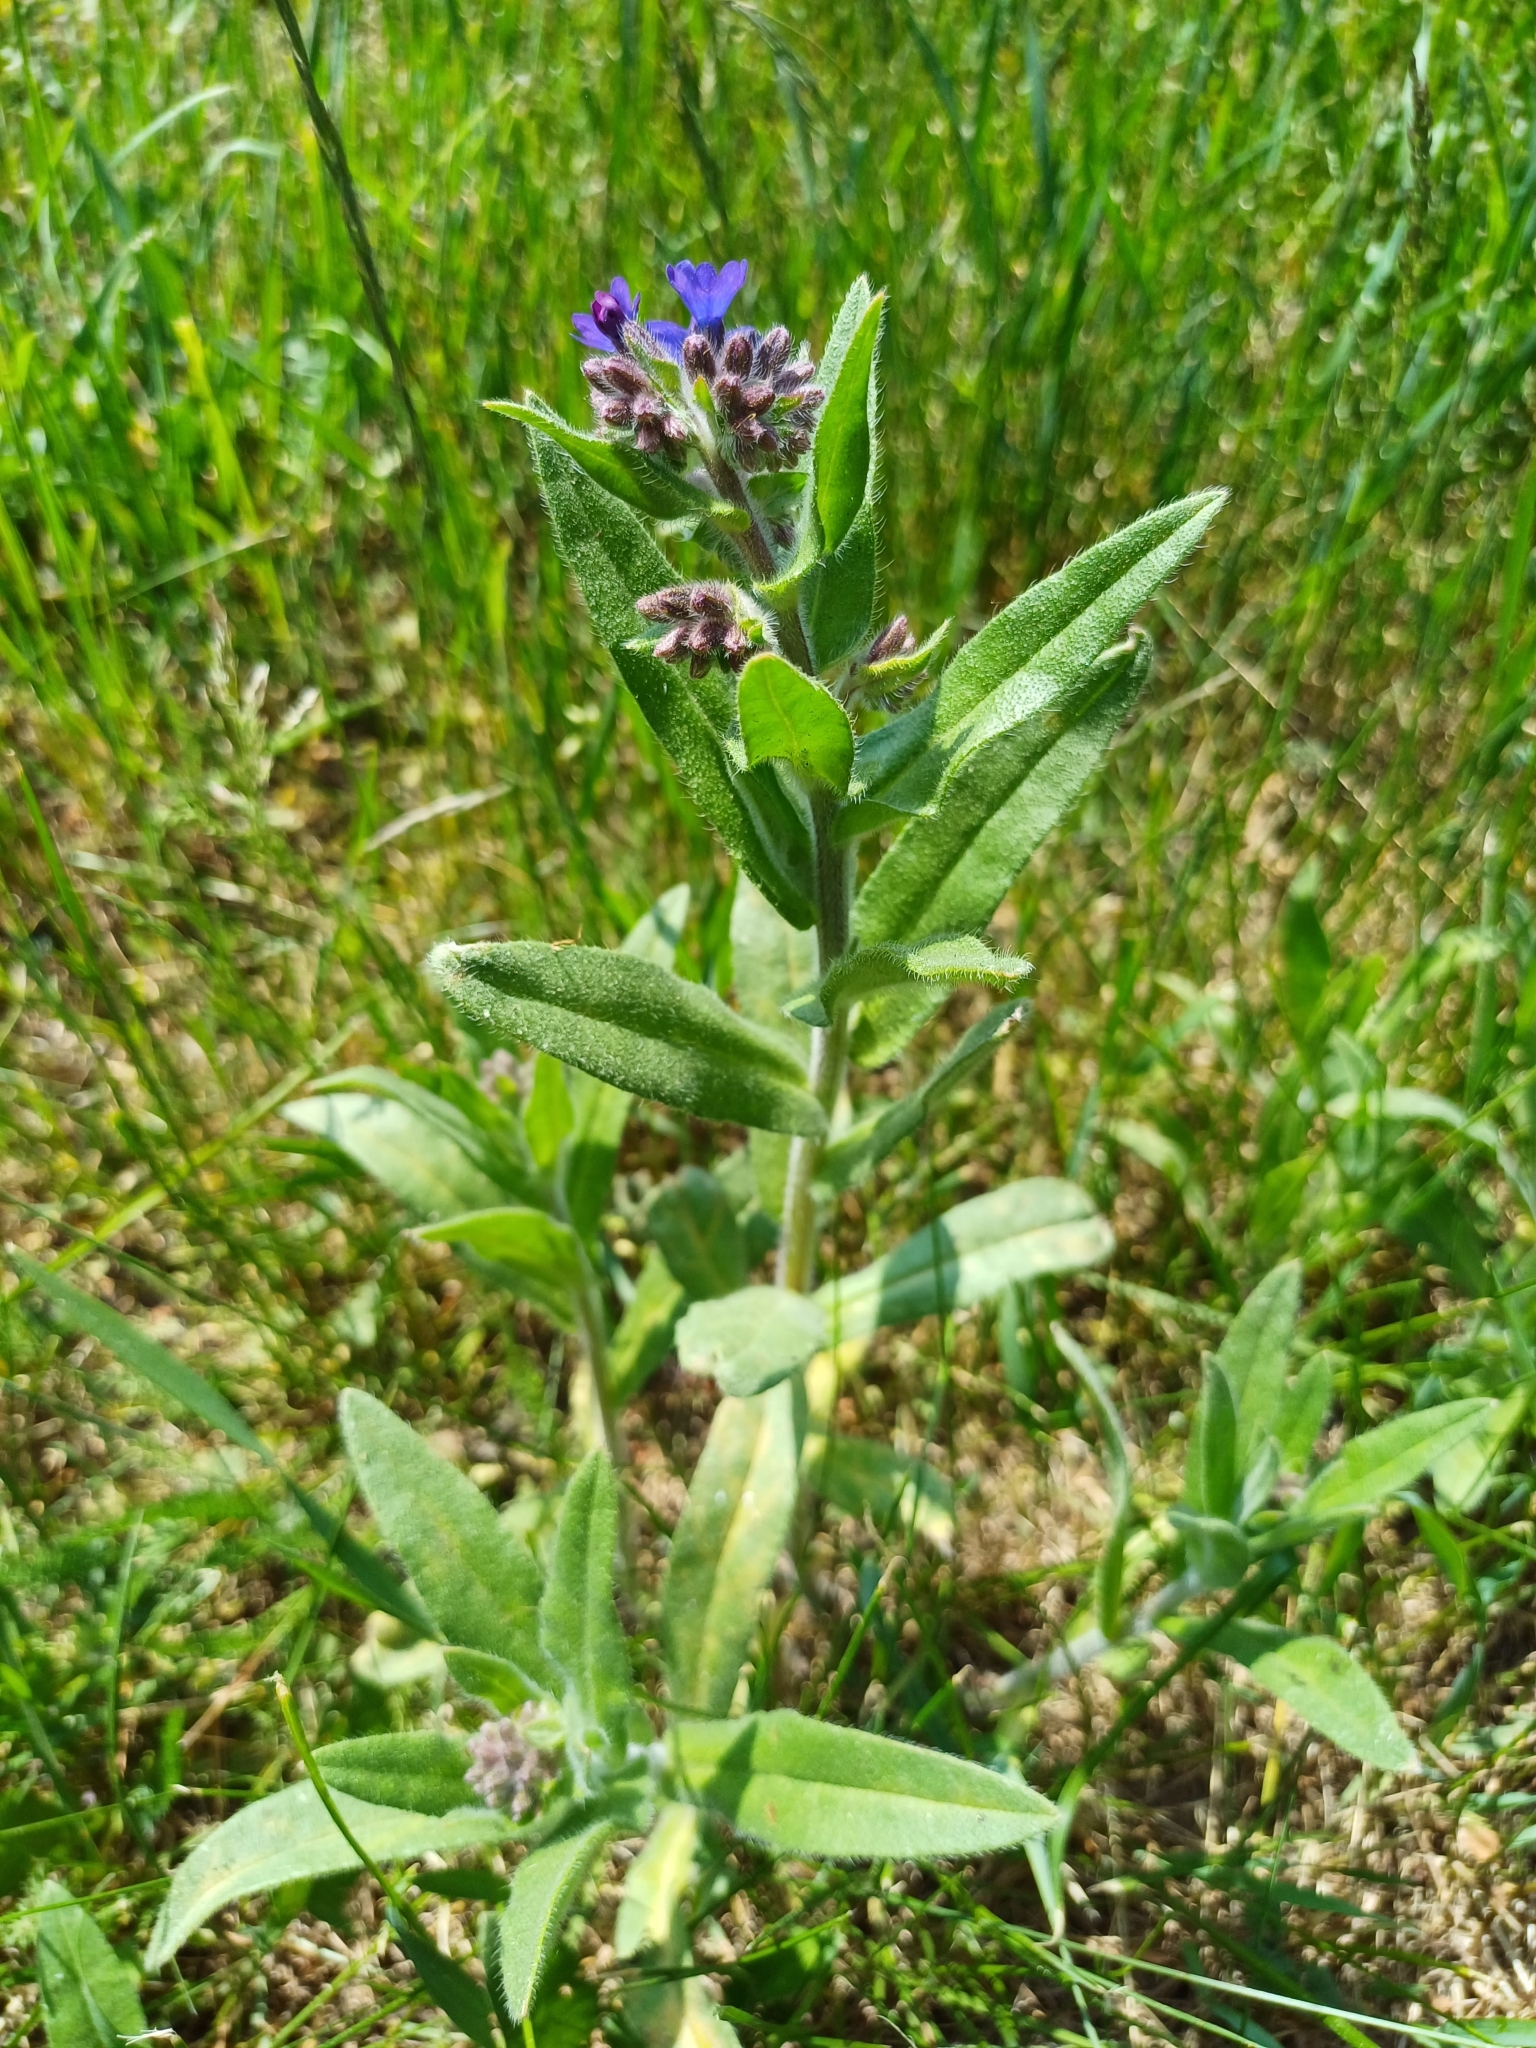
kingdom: Plantae
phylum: Tracheophyta
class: Magnoliopsida
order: Boraginales
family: Boraginaceae
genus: Anchusa
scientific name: Anchusa officinalis
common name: Alkanet
